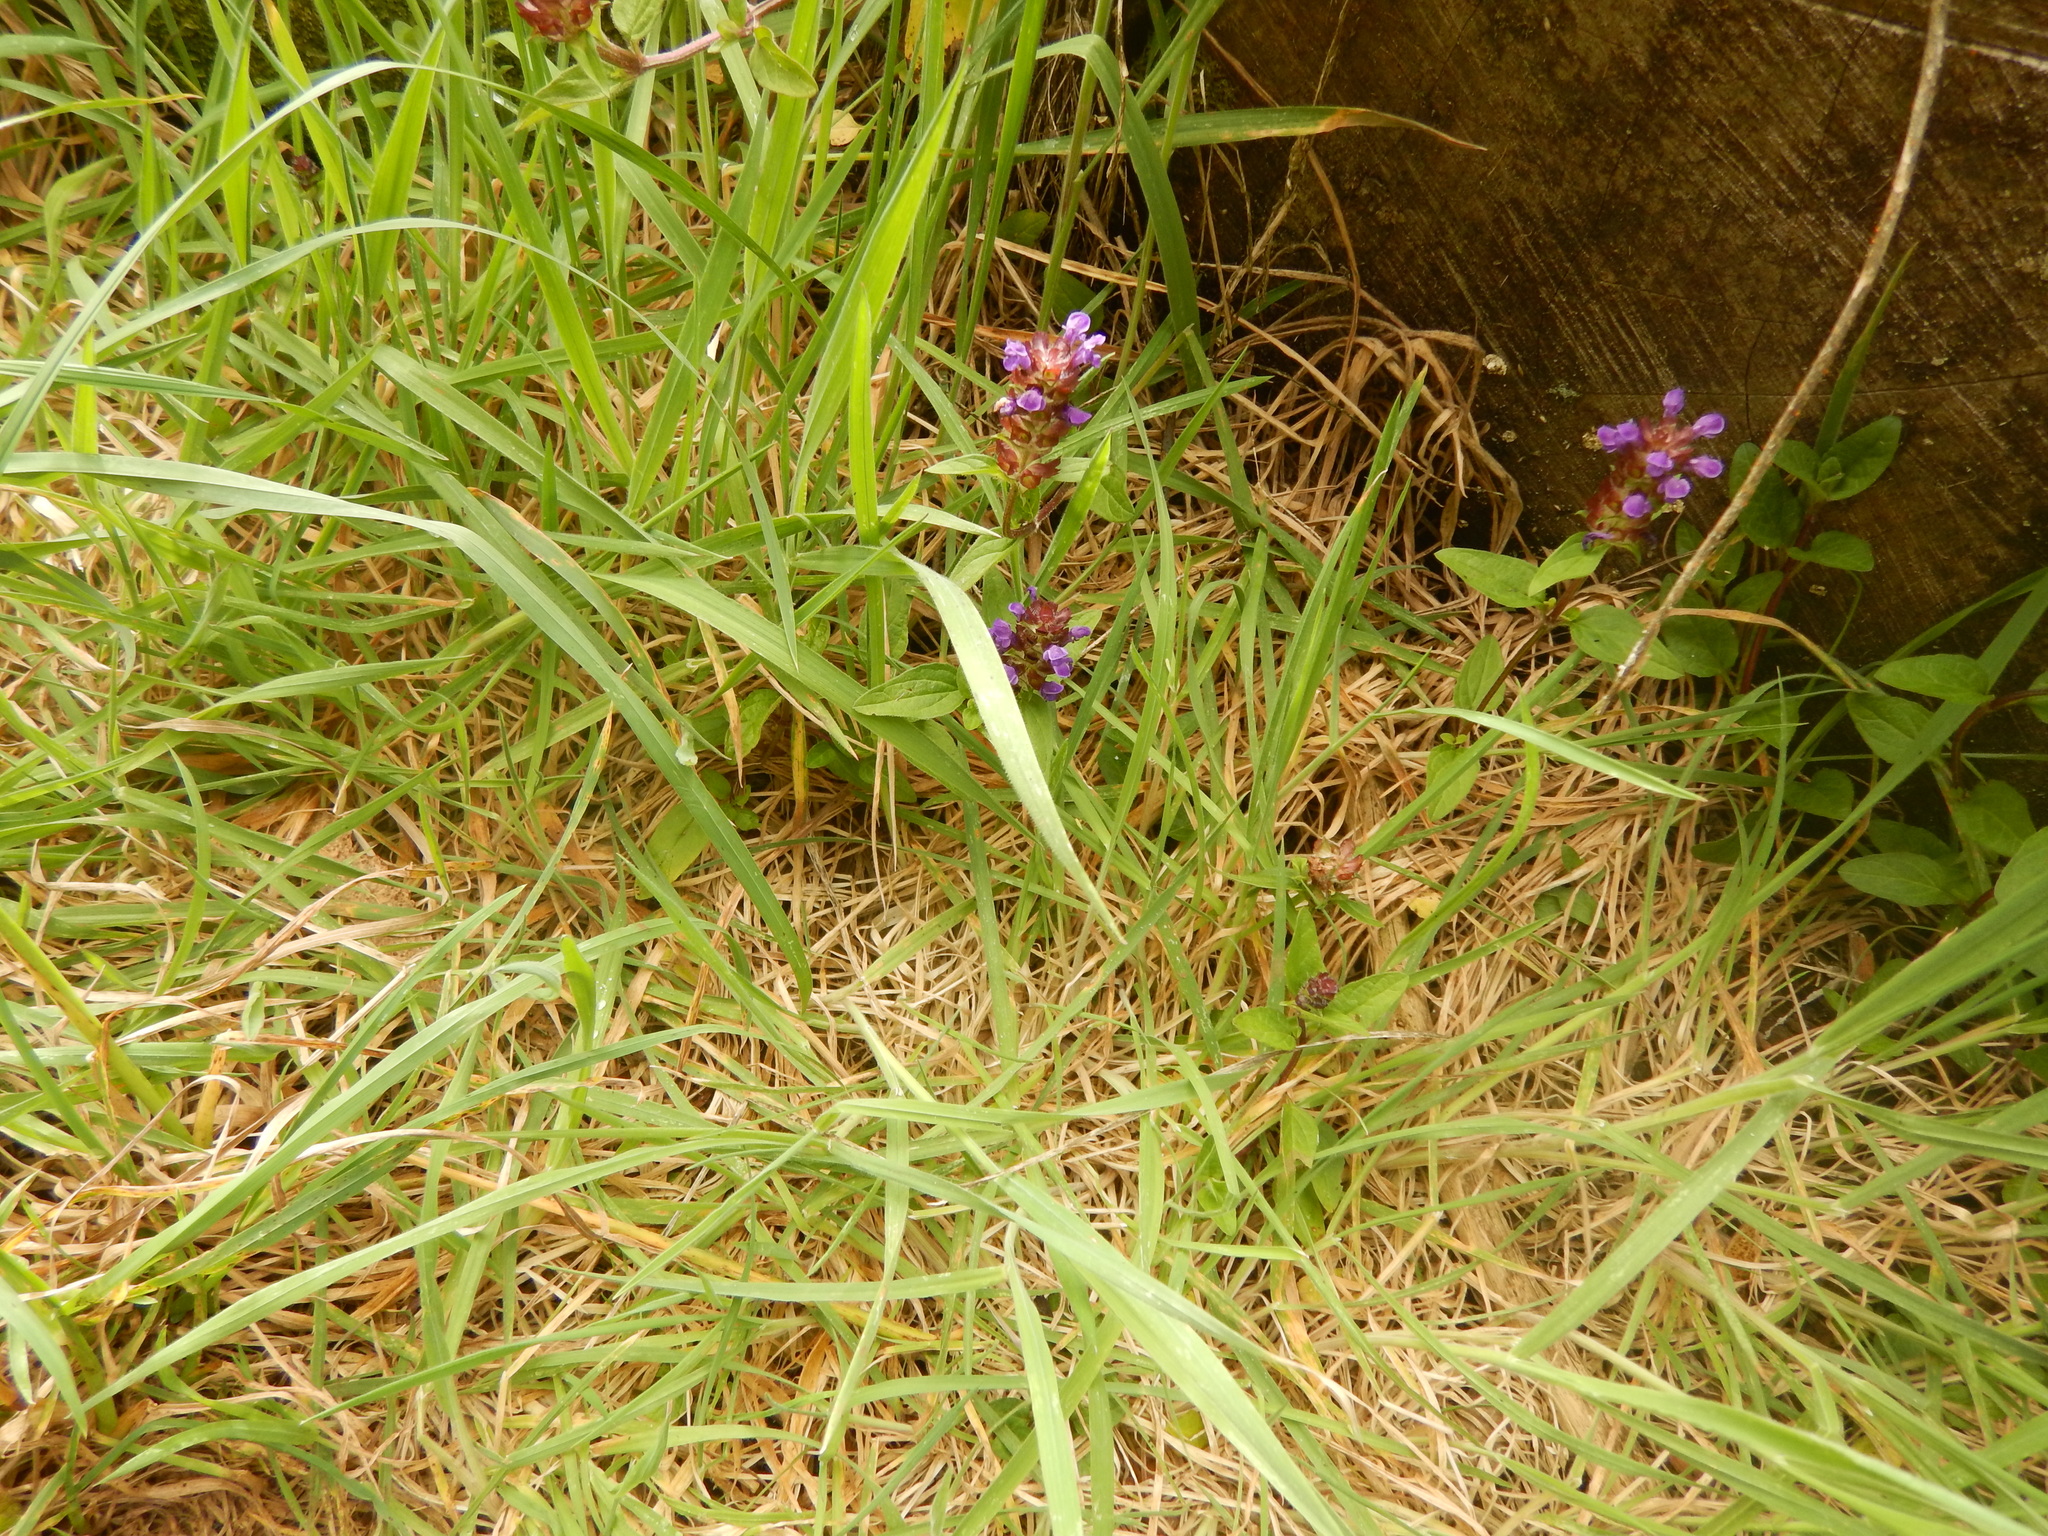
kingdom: Plantae
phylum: Tracheophyta
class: Magnoliopsida
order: Lamiales
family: Lamiaceae
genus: Prunella
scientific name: Prunella vulgaris
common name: Heal-all
